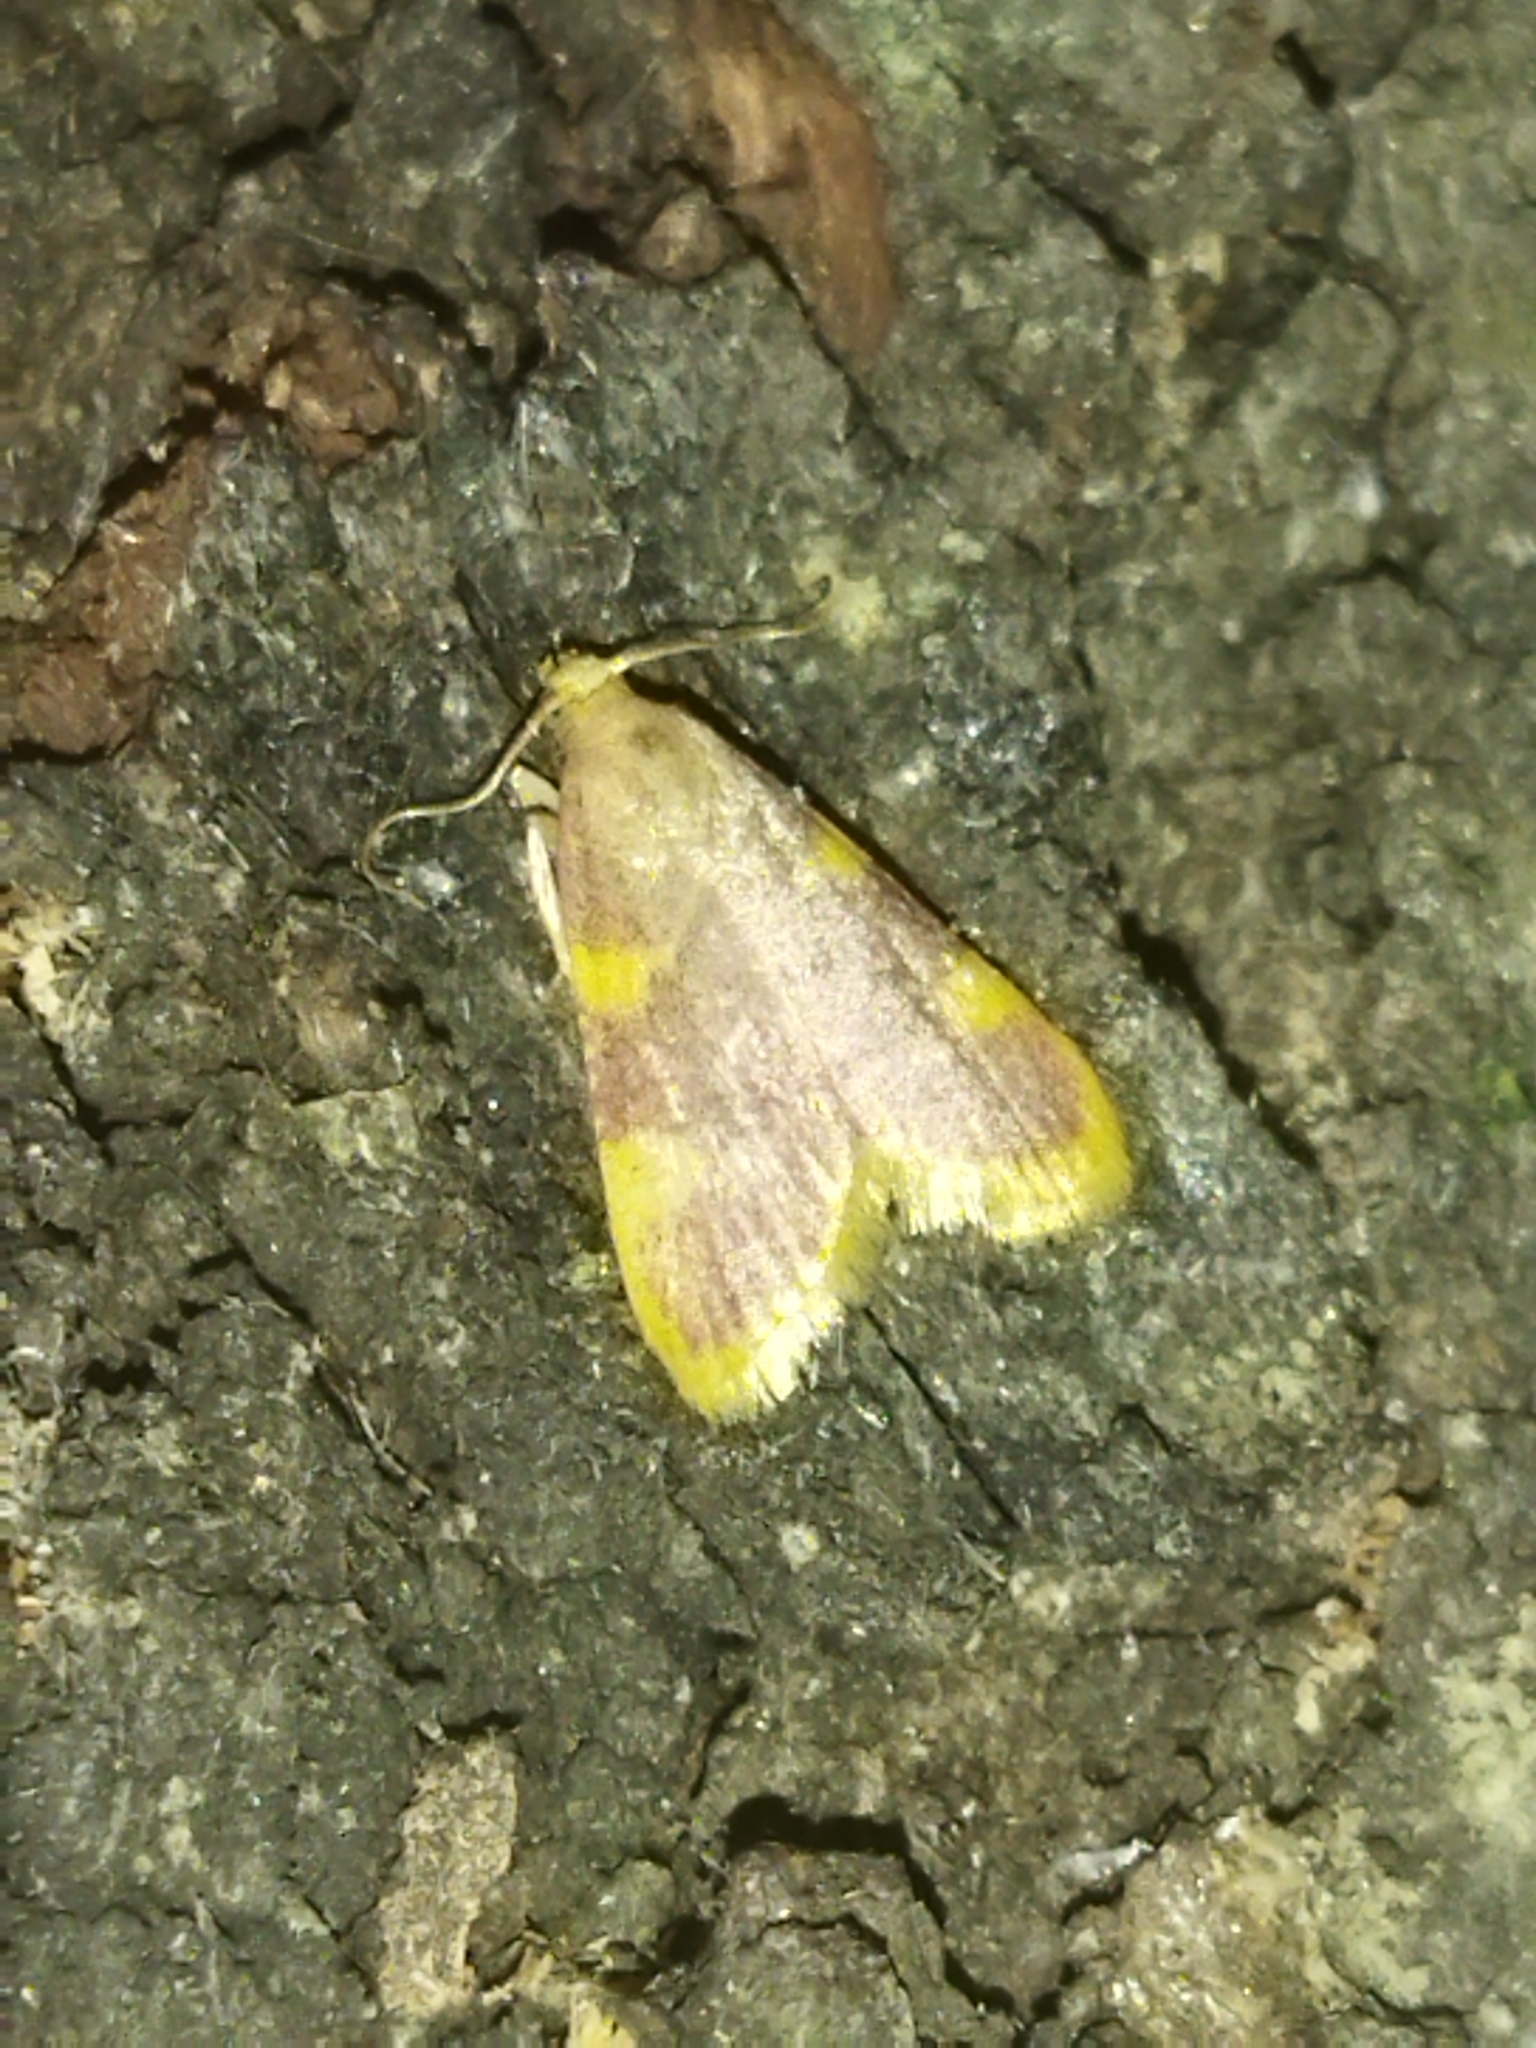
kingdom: Animalia
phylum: Arthropoda
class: Insecta
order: Lepidoptera
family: Pyralidae
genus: Hypsopygia
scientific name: Hypsopygia costalis
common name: Gold triangle
